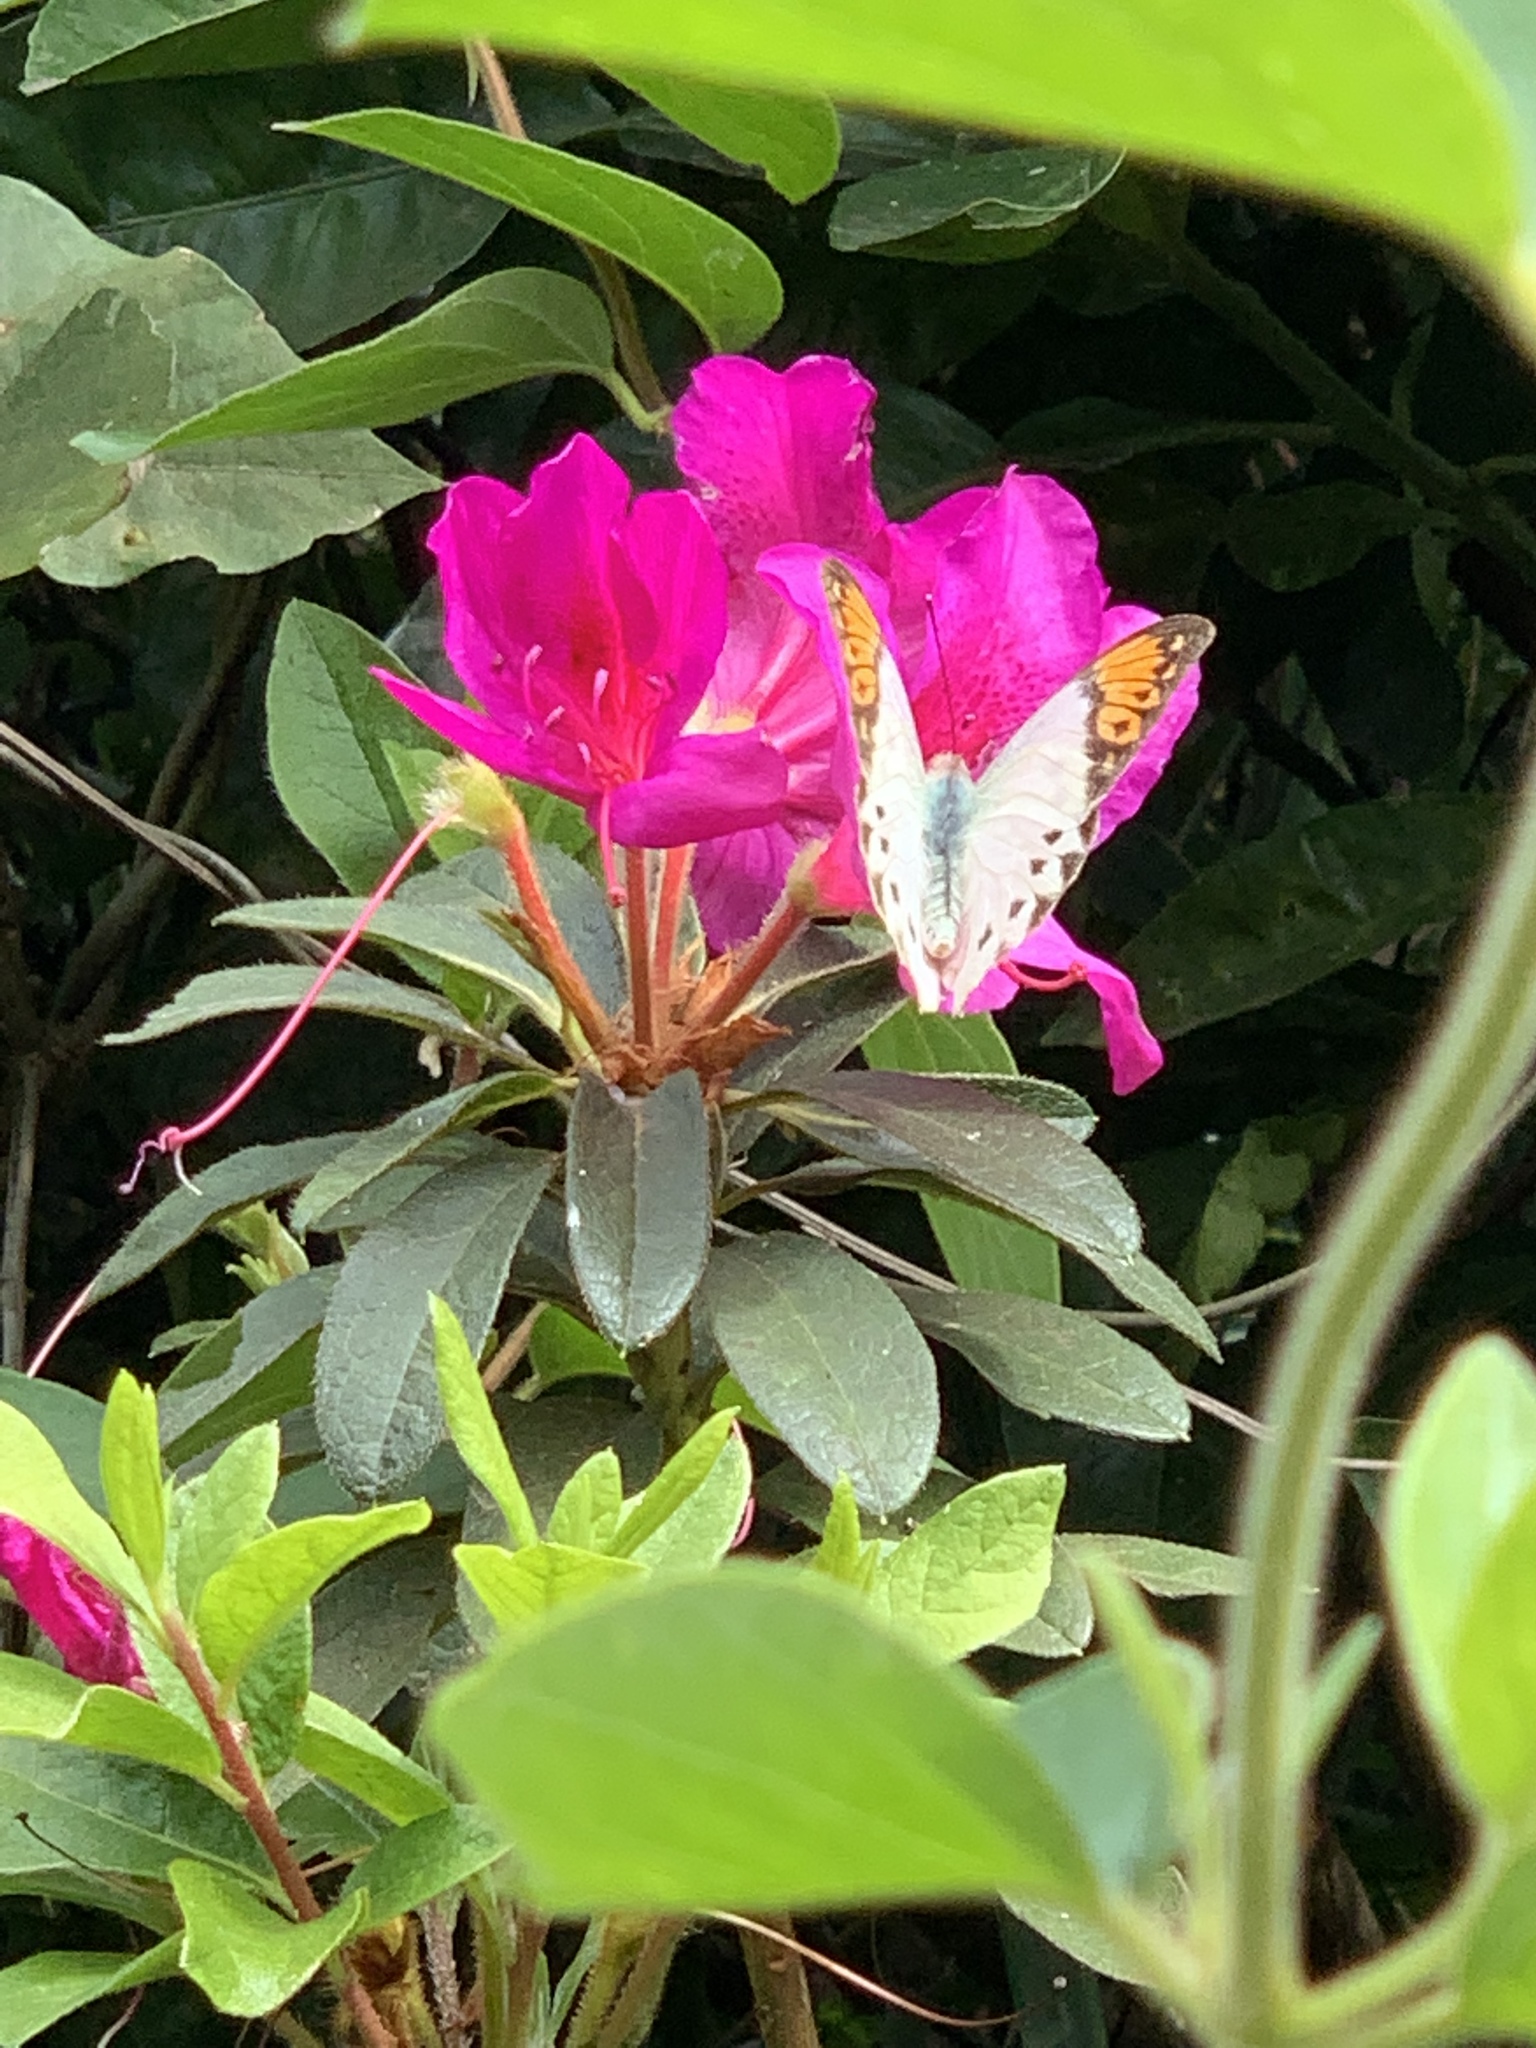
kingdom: Animalia
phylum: Arthropoda
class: Insecta
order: Lepidoptera
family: Pieridae
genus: Hebomoia
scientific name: Hebomoia glaucippe
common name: Great orange tip
